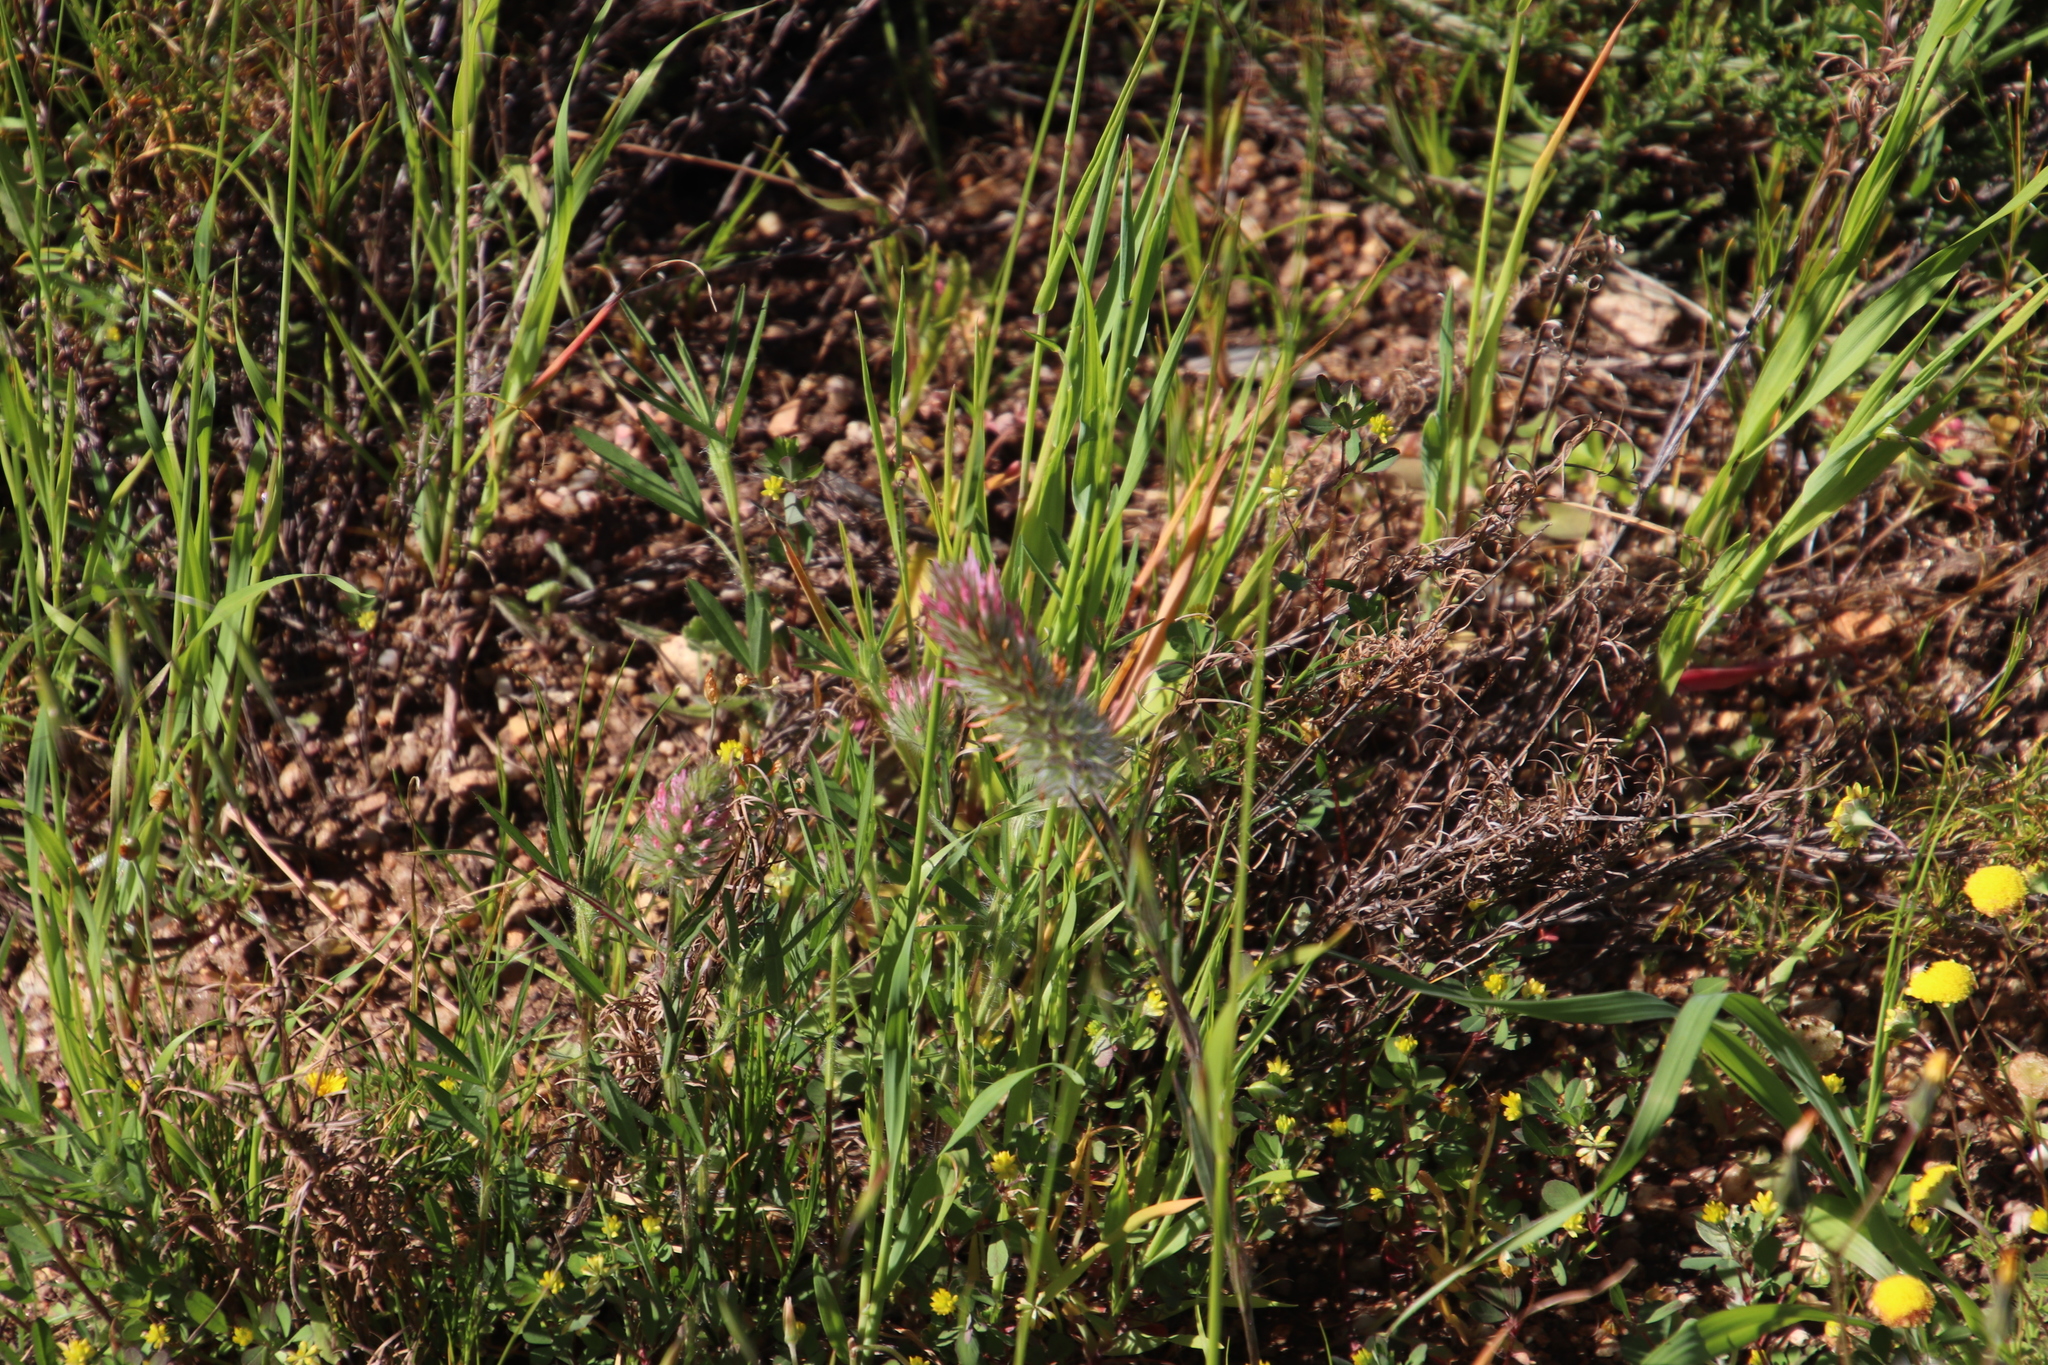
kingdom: Plantae
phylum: Tracheophyta
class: Magnoliopsida
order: Fabales
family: Fabaceae
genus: Trifolium
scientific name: Trifolium angustifolium
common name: Narrow clover
